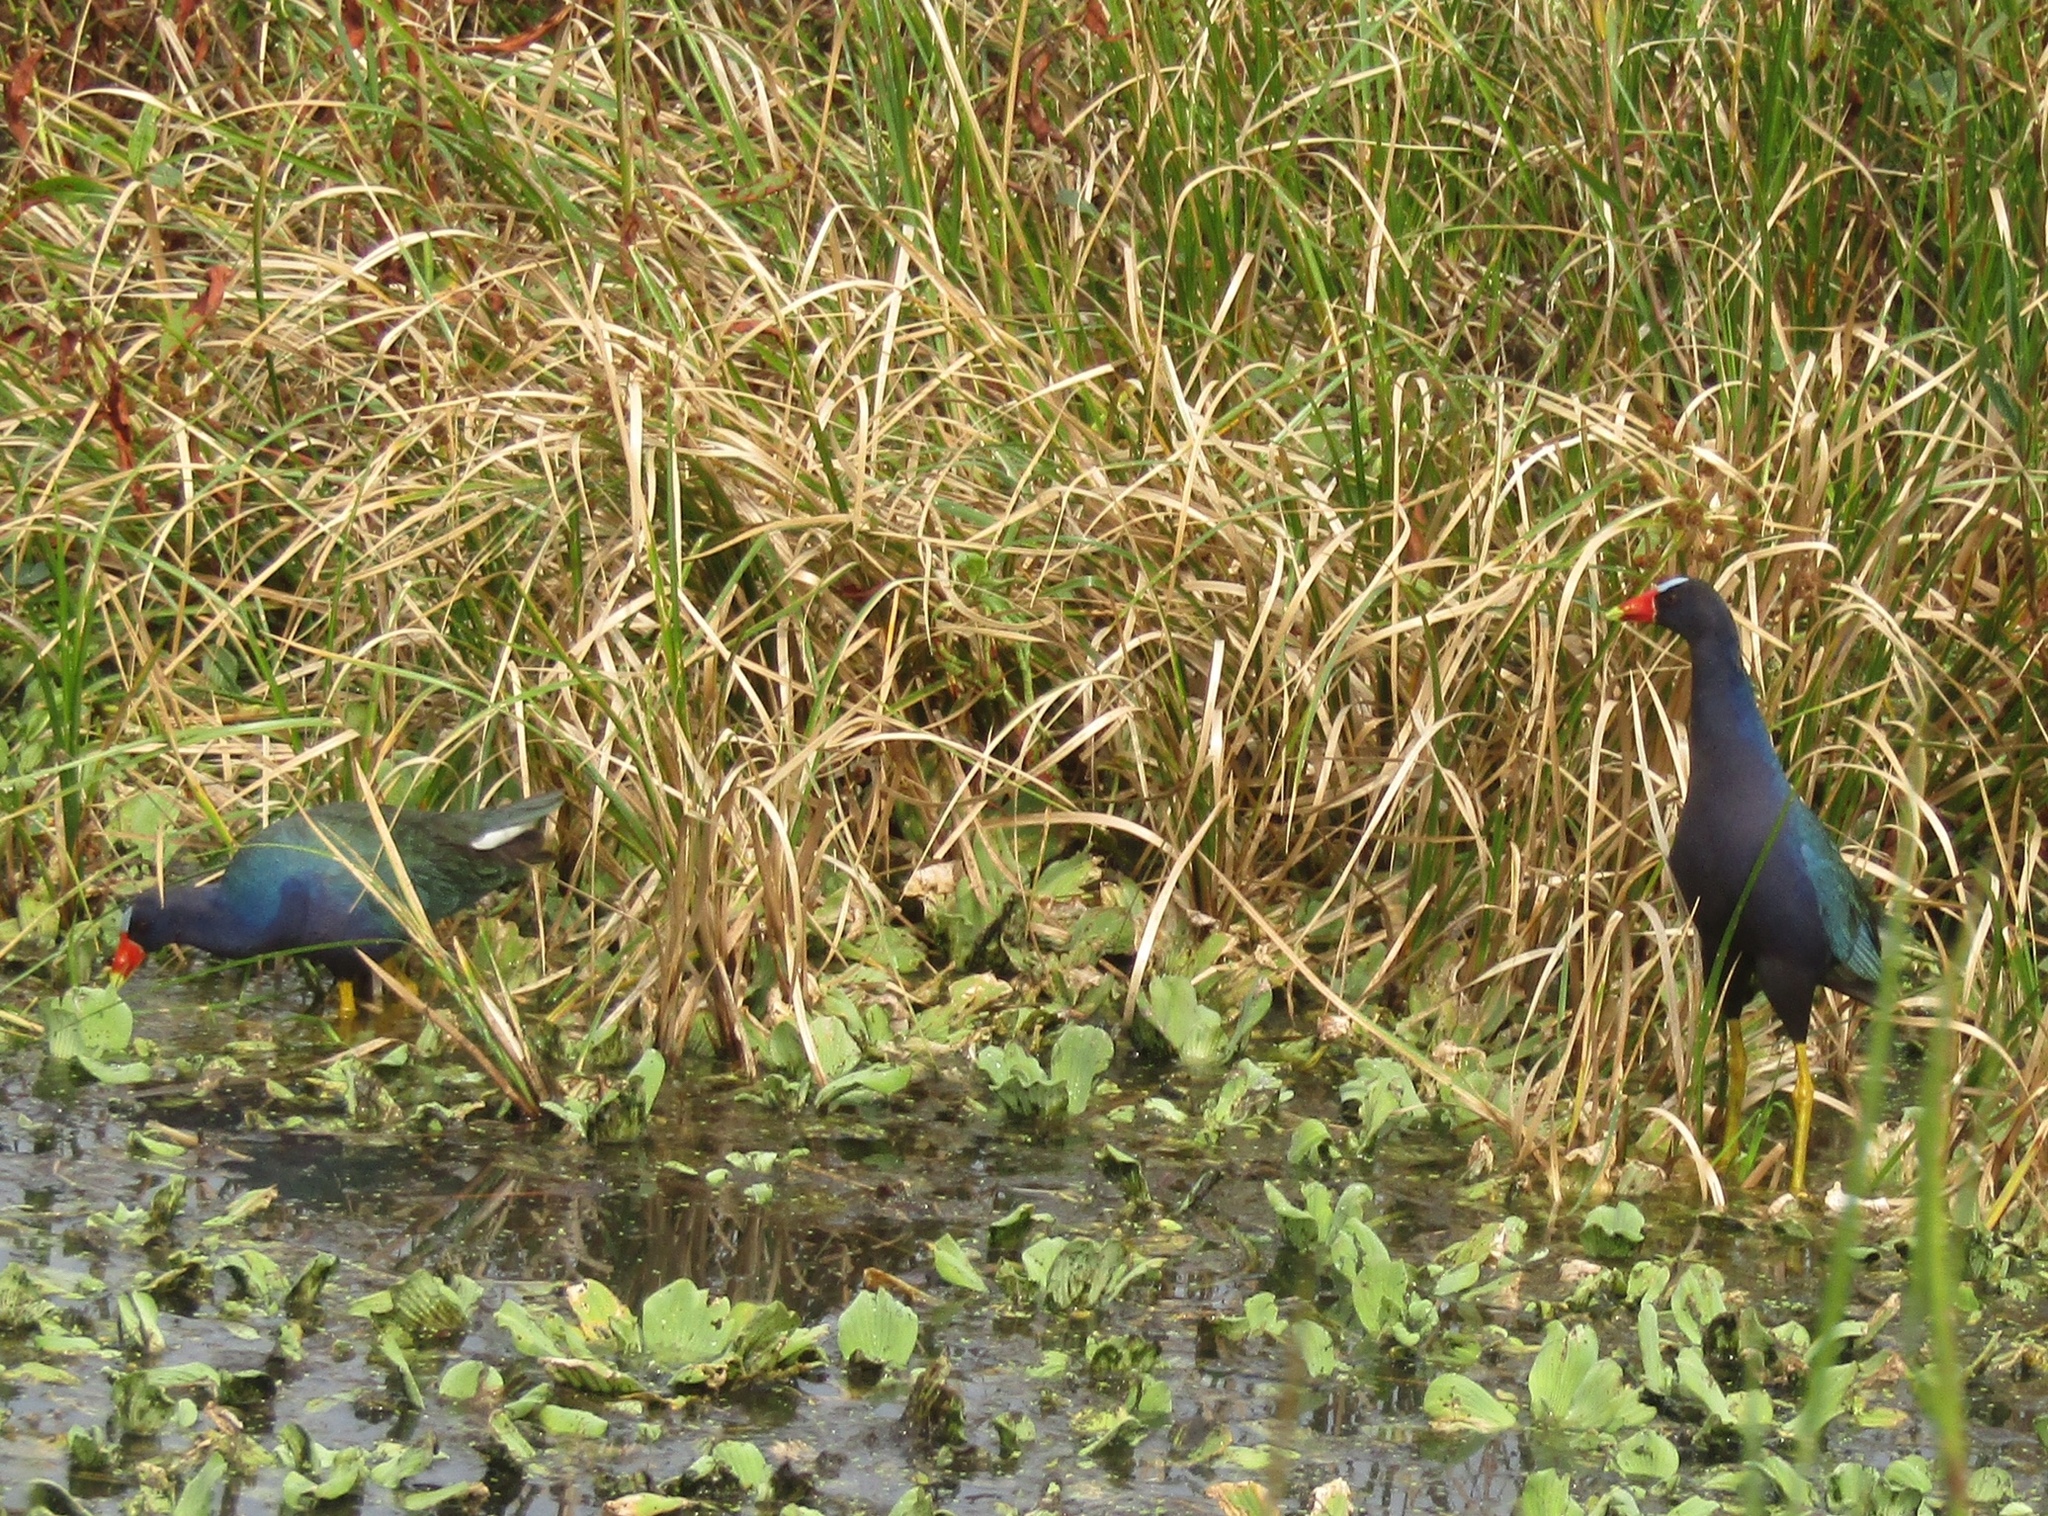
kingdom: Animalia
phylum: Chordata
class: Aves
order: Gruiformes
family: Rallidae
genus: Porphyrio
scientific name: Porphyrio martinica
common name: Purple gallinule
